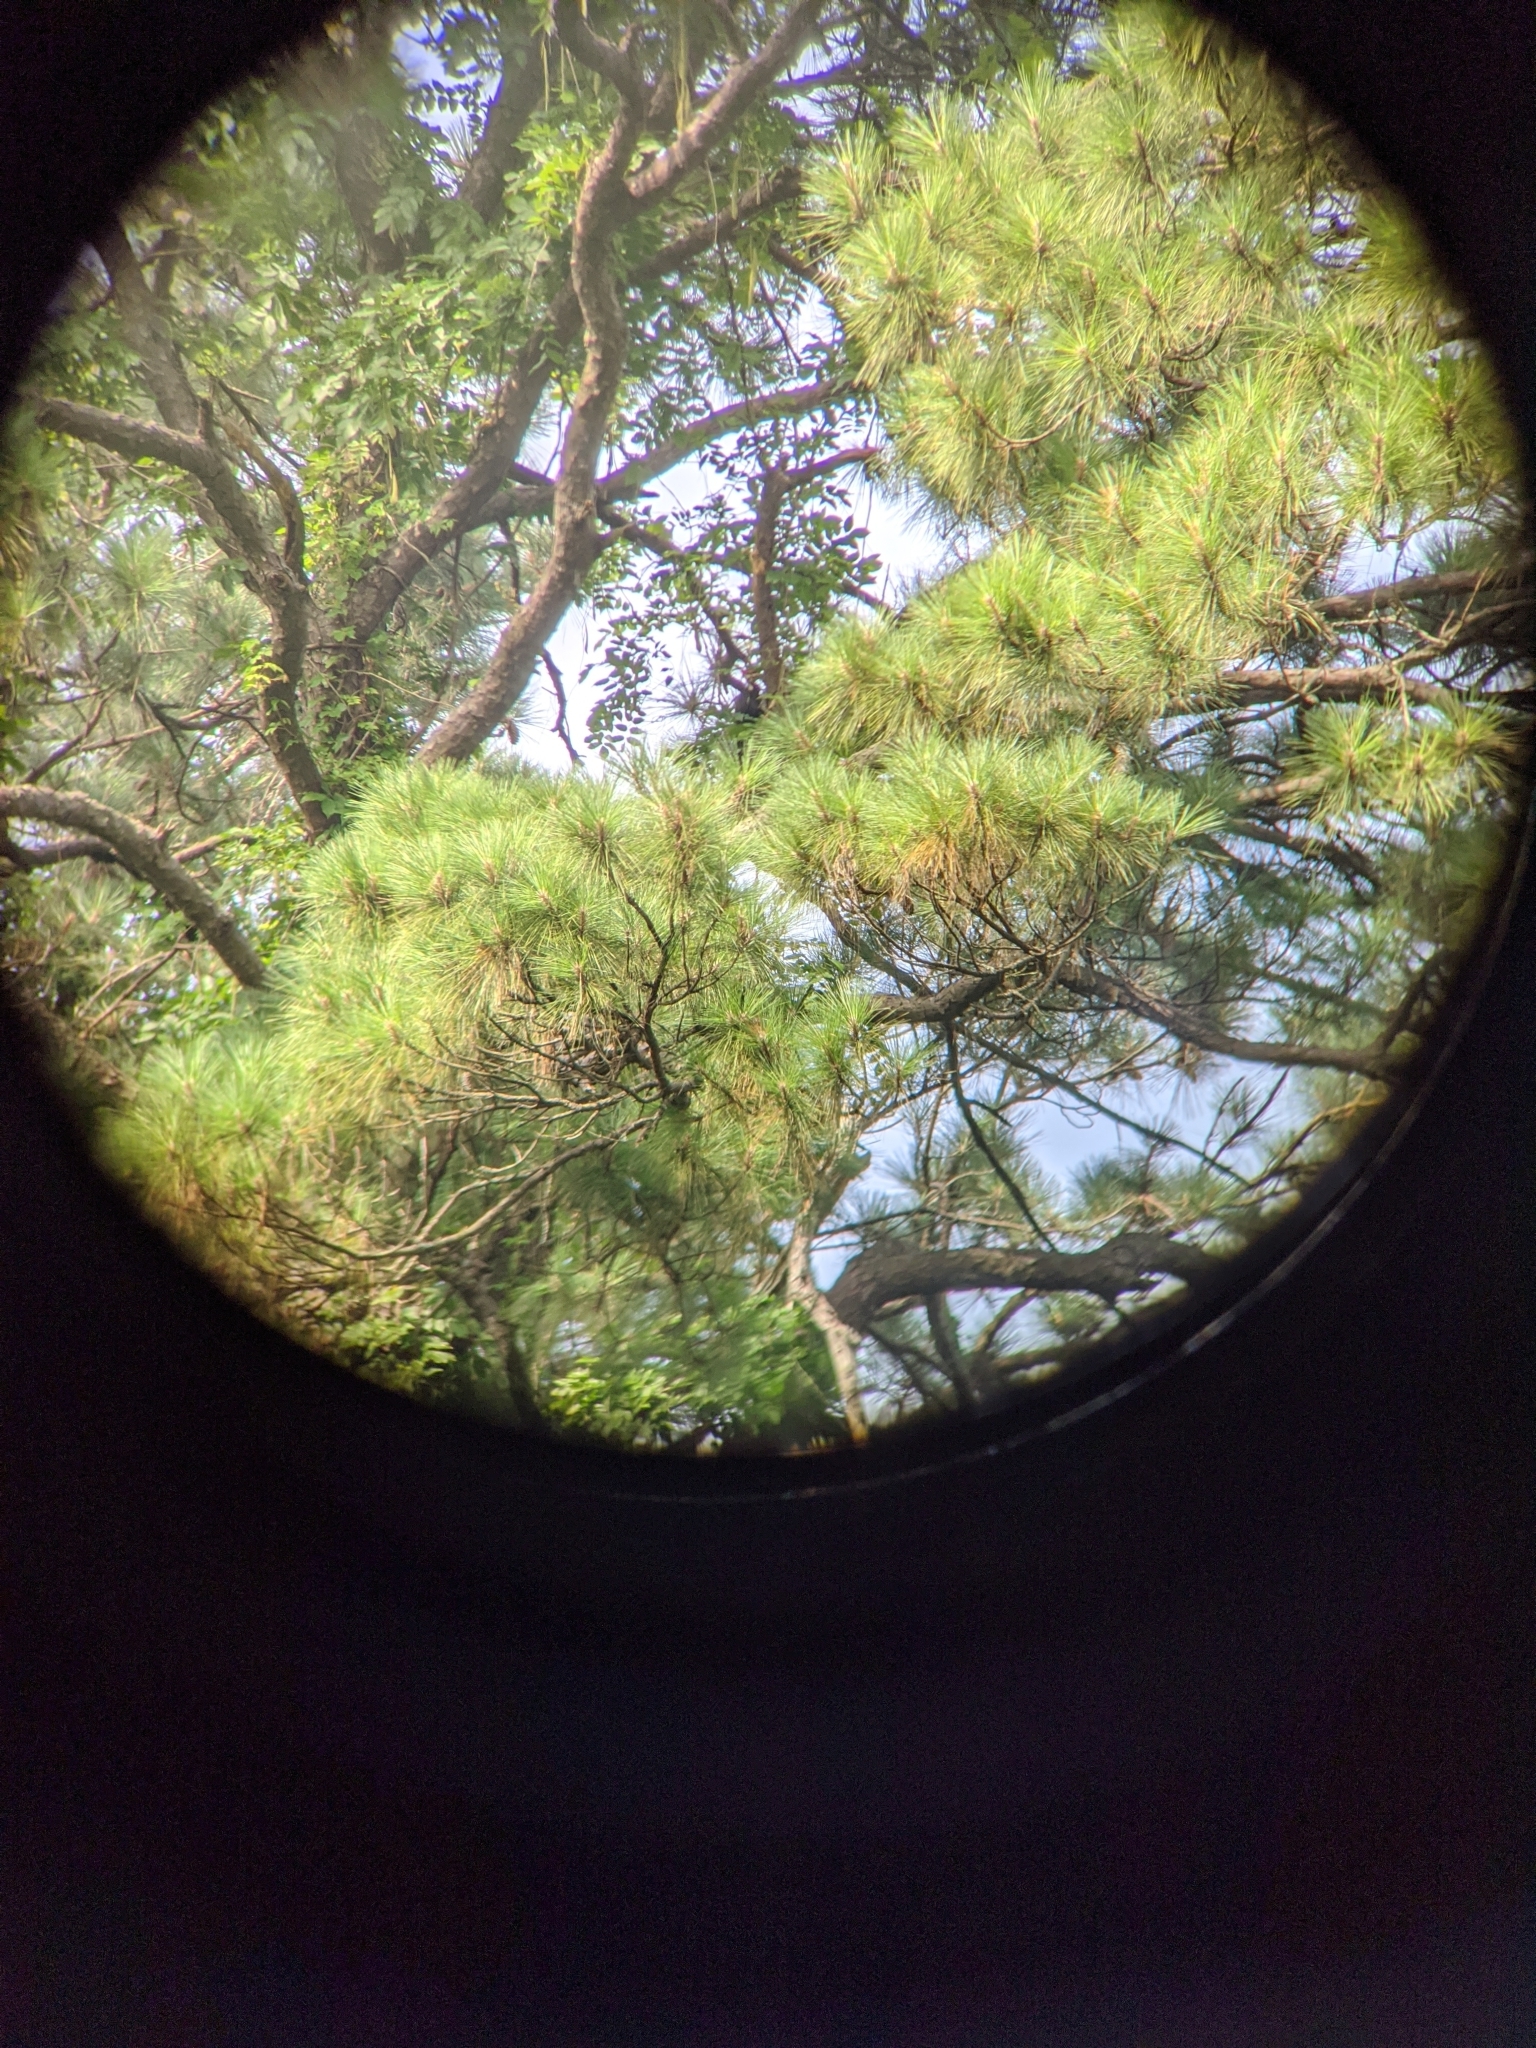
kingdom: Animalia
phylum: Chordata
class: Aves
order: Piciformes
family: Picidae
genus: Dryocopus
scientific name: Dryocopus pileatus
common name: Pileated woodpecker
